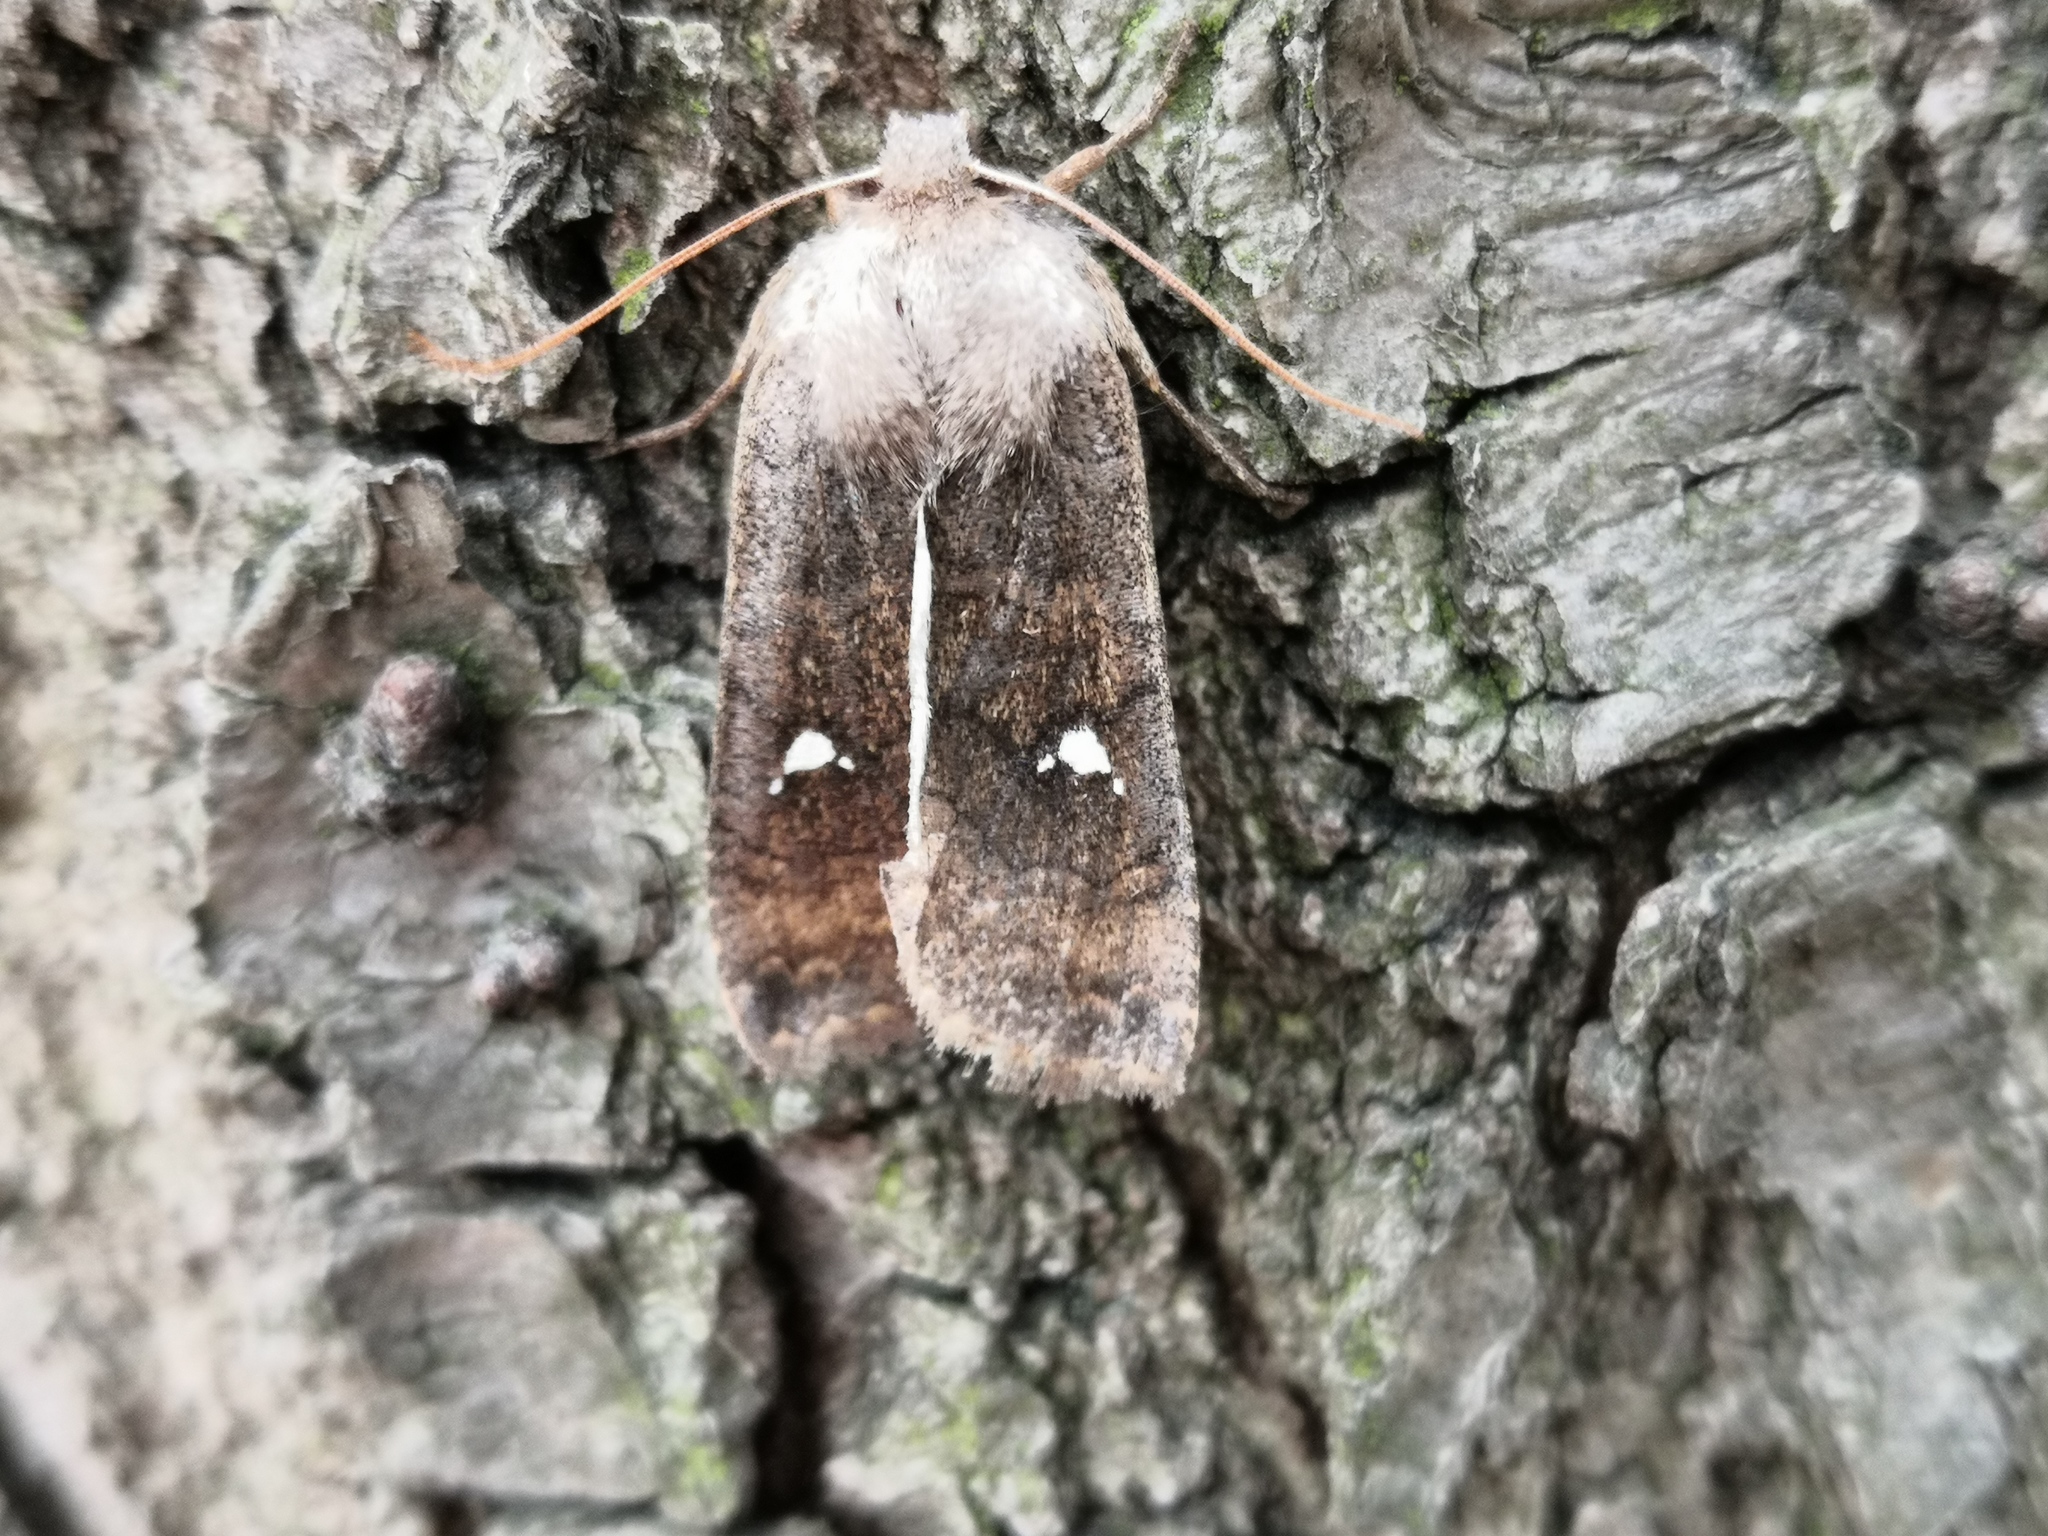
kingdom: Animalia
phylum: Arthropoda
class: Insecta
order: Lepidoptera
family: Noctuidae
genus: Eupsilia
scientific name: Eupsilia transversa
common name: Satellite
